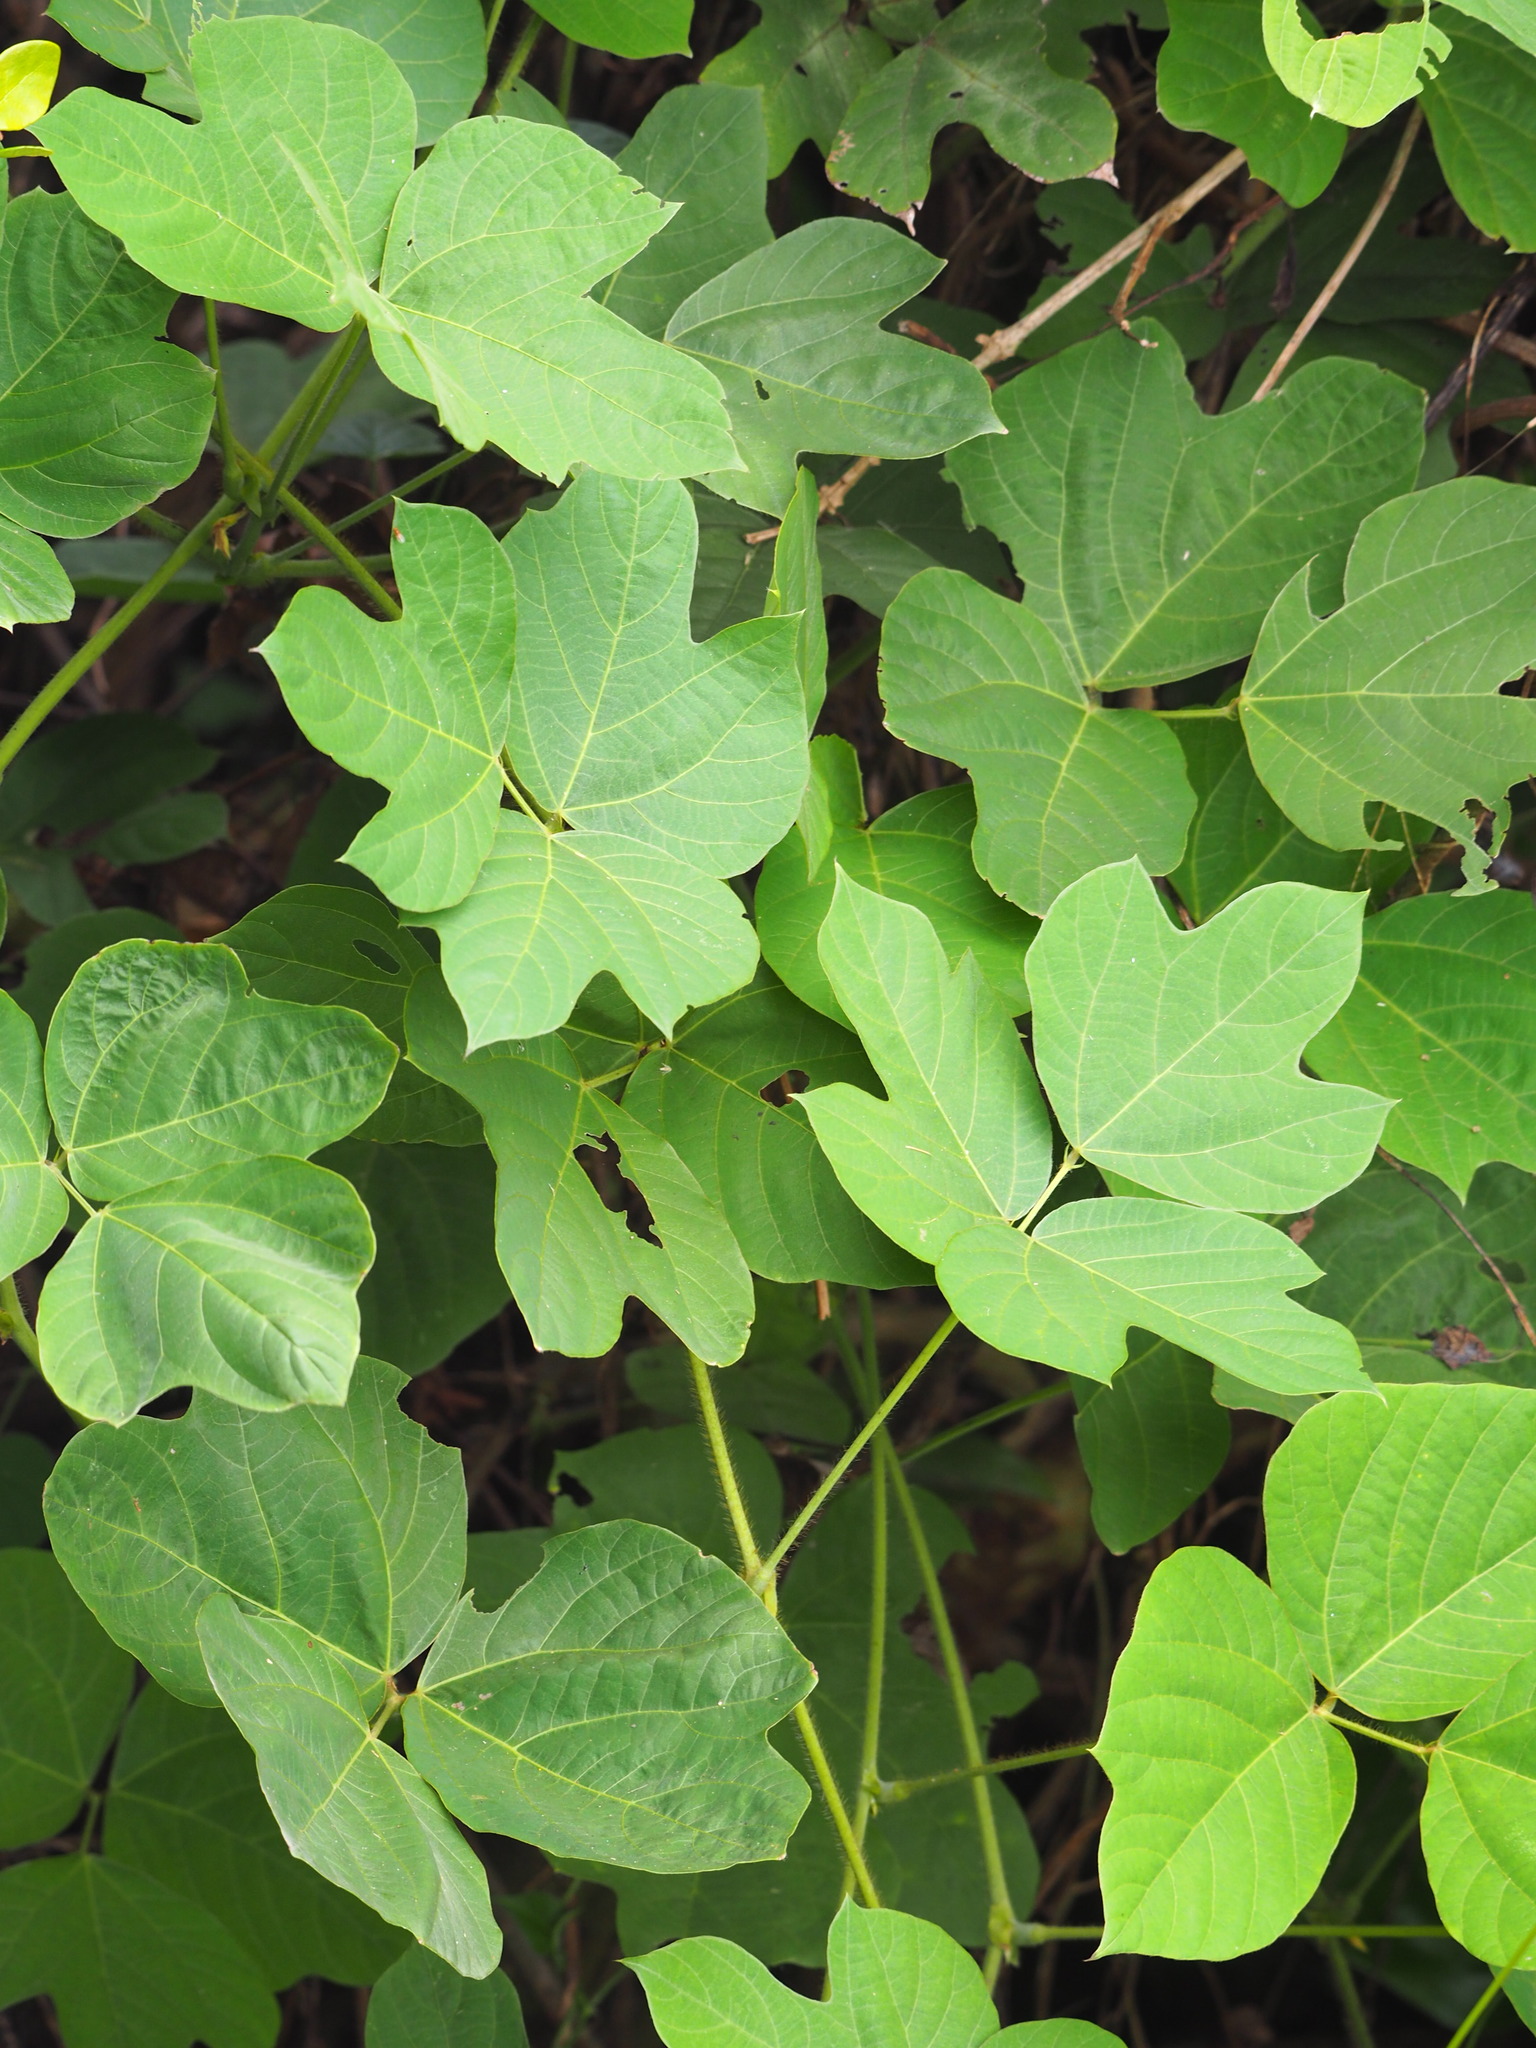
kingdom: Plantae
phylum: Tracheophyta
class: Magnoliopsida
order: Fabales
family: Fabaceae
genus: Pueraria
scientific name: Pueraria montana
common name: Kudzu
